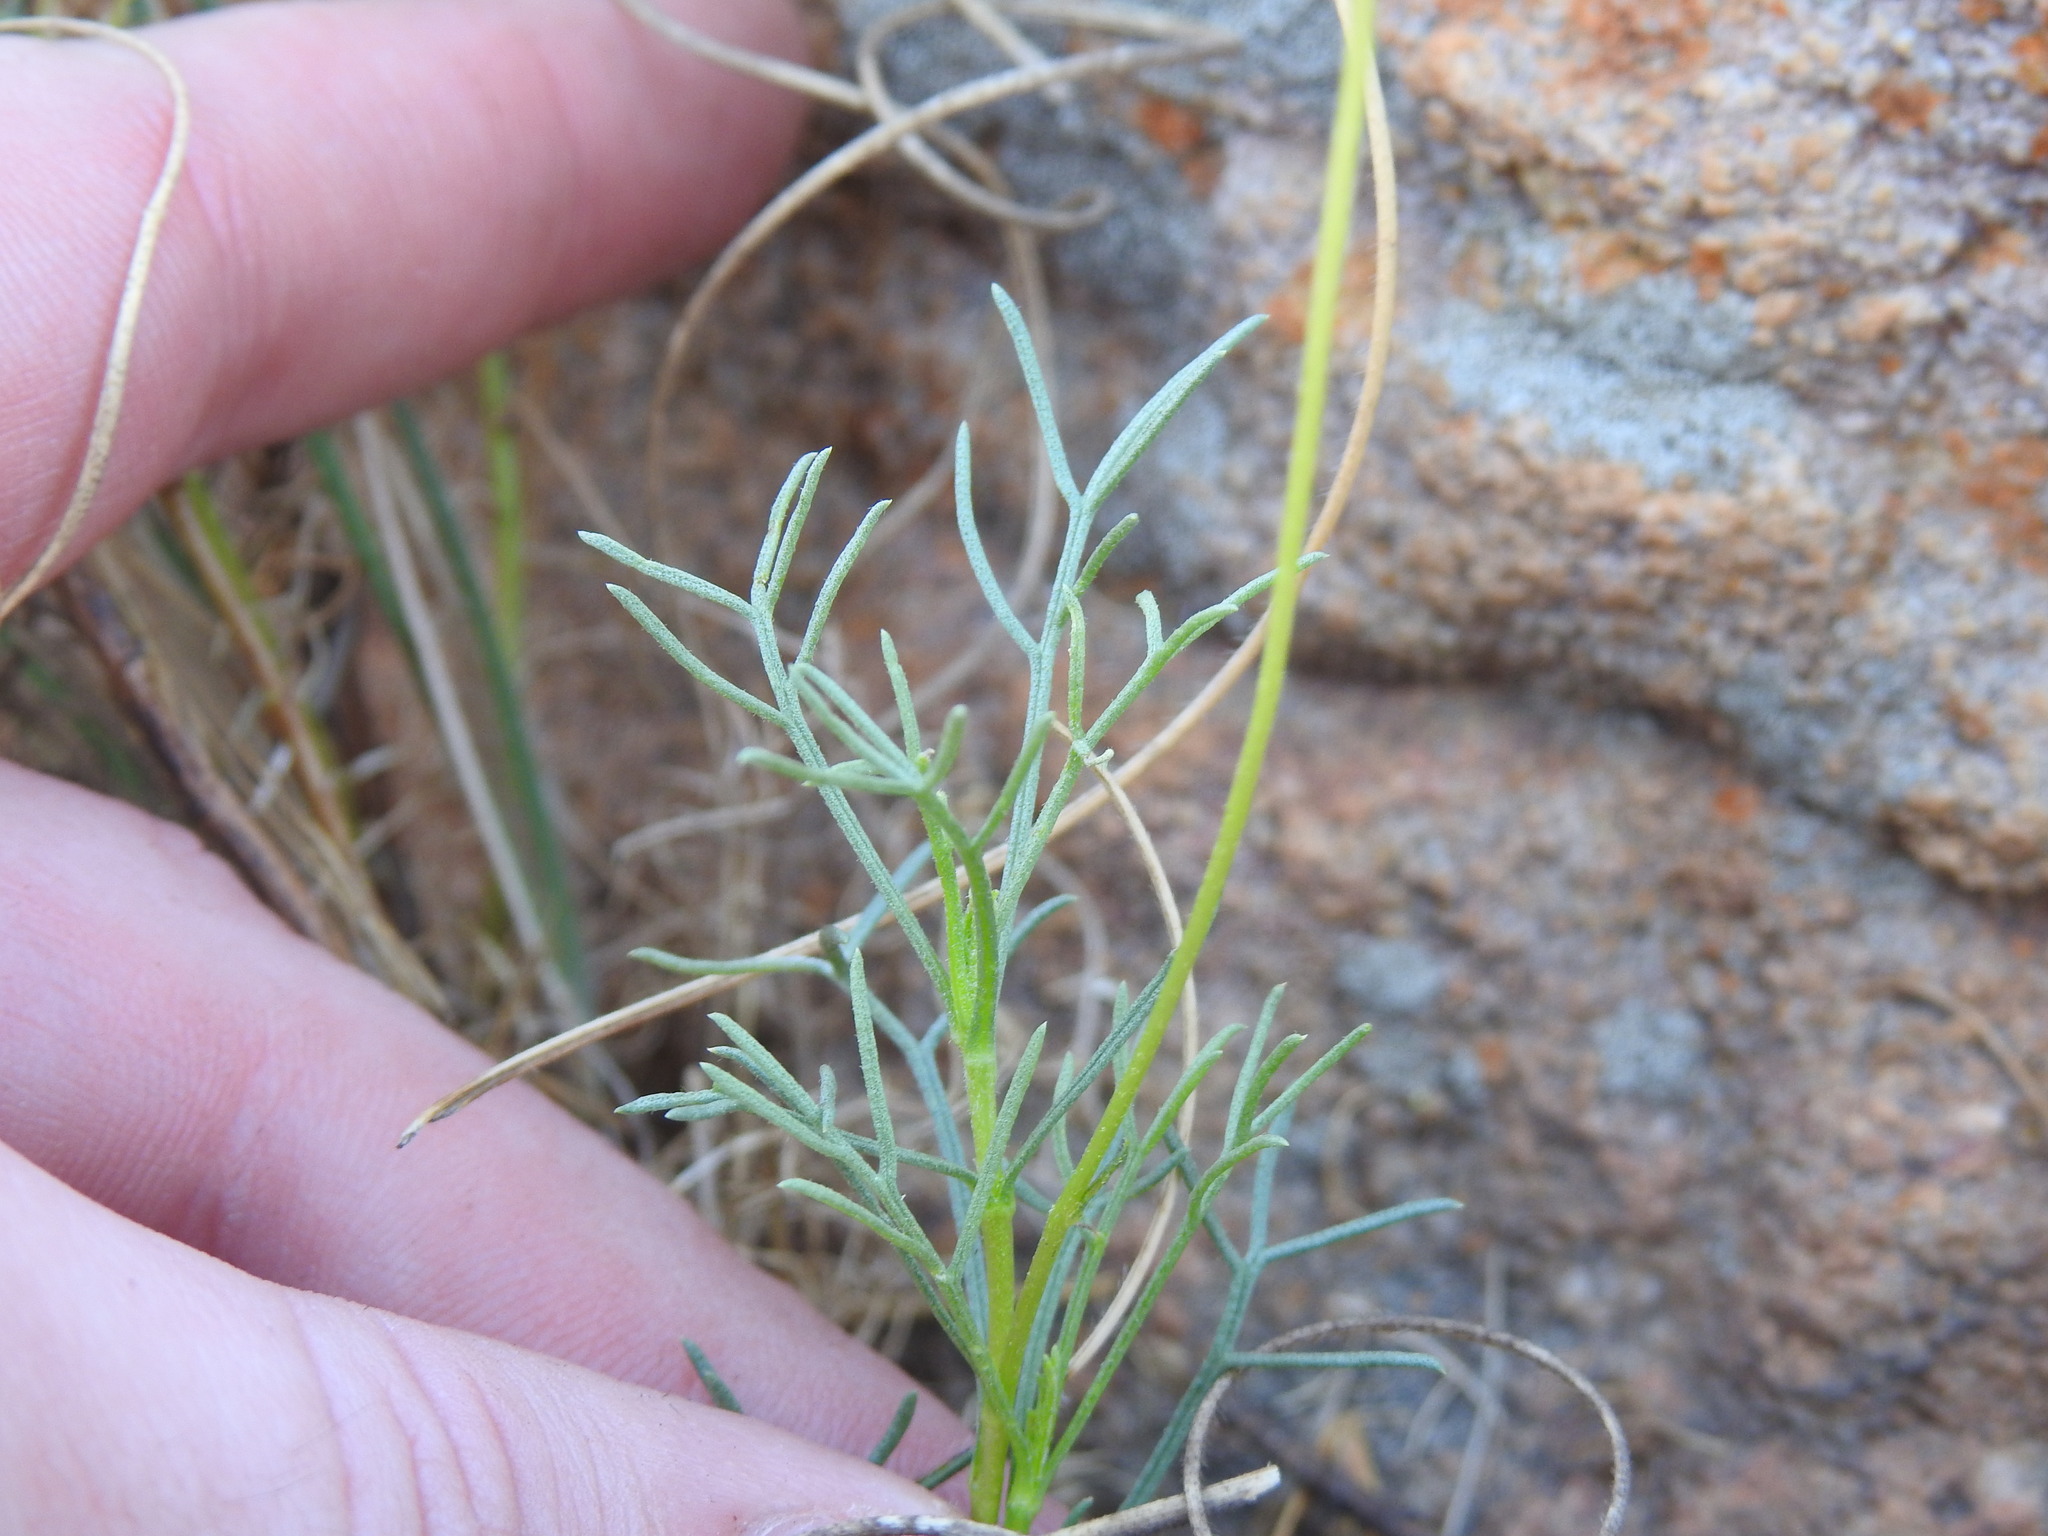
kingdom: Plantae
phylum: Tracheophyta
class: Magnoliopsida
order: Asterales
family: Asteraceae
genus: Ursinia
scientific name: Ursinia nana
